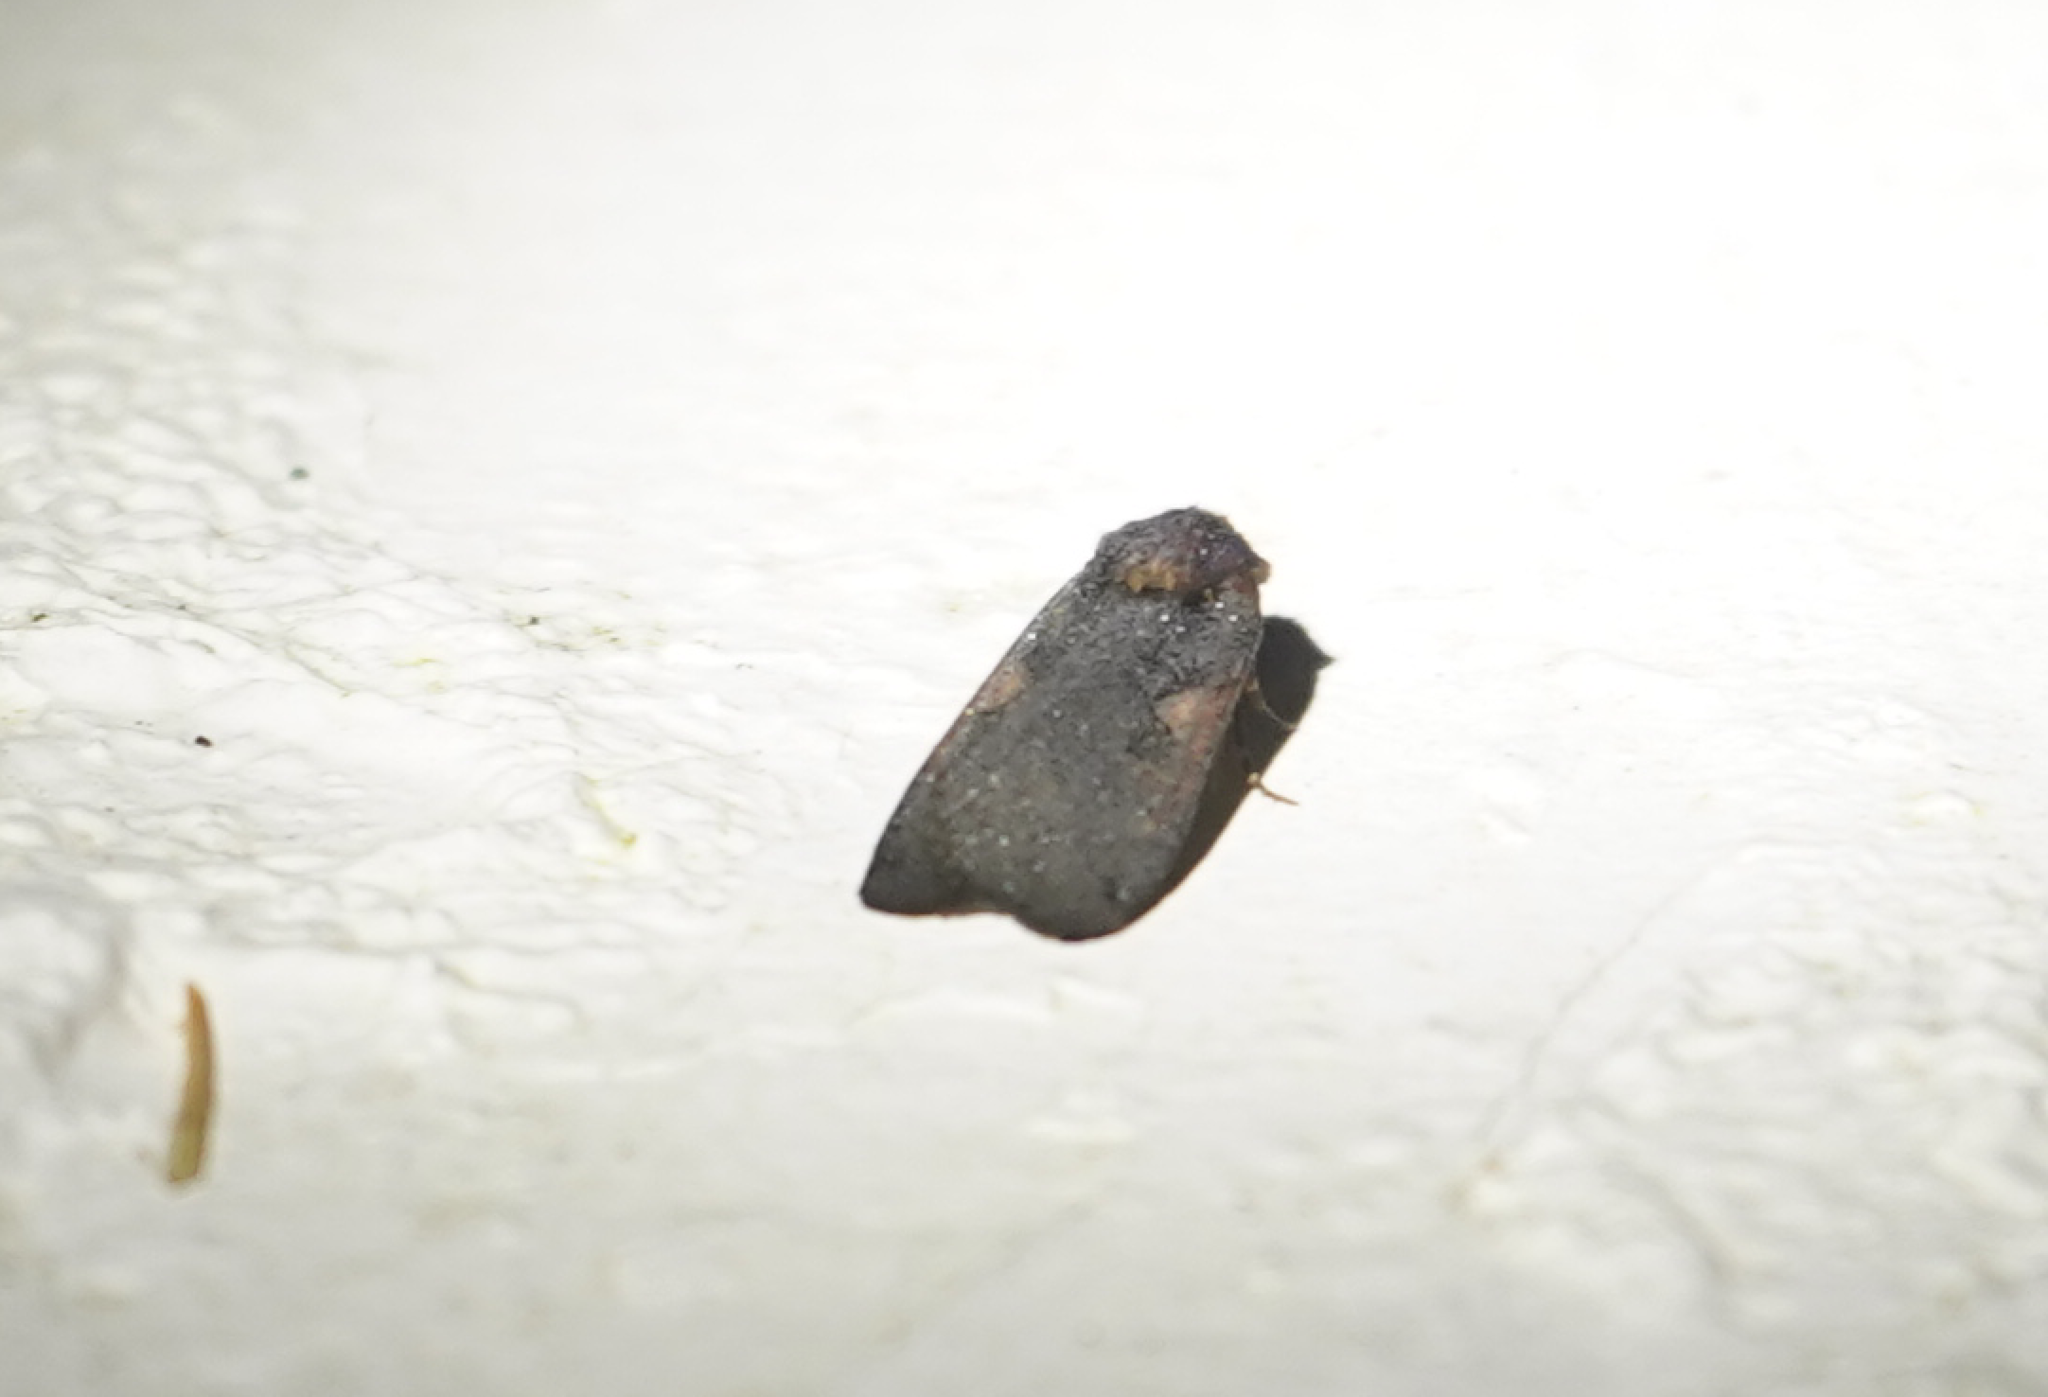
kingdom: Animalia
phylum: Arthropoda
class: Insecta
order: Lepidoptera
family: Noctuidae
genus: Xestia
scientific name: Xestia
